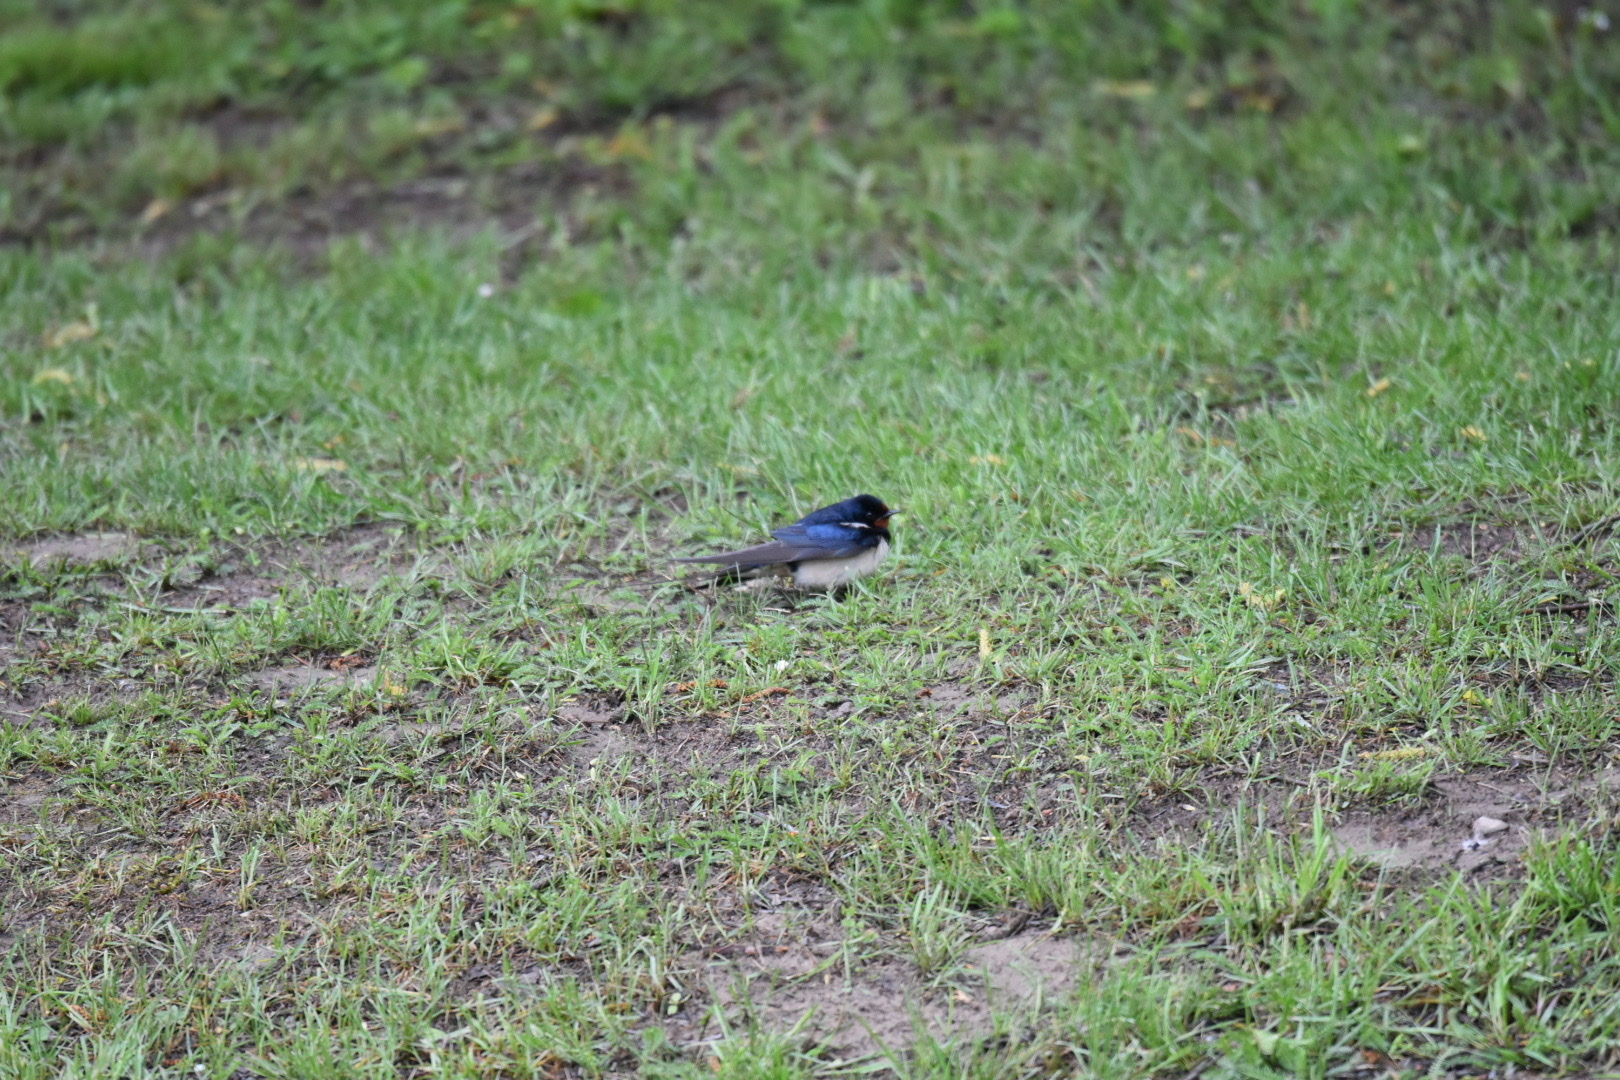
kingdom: Animalia
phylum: Chordata
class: Aves
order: Passeriformes
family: Hirundinidae
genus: Hirundo
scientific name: Hirundo rustica
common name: Barn swallow
